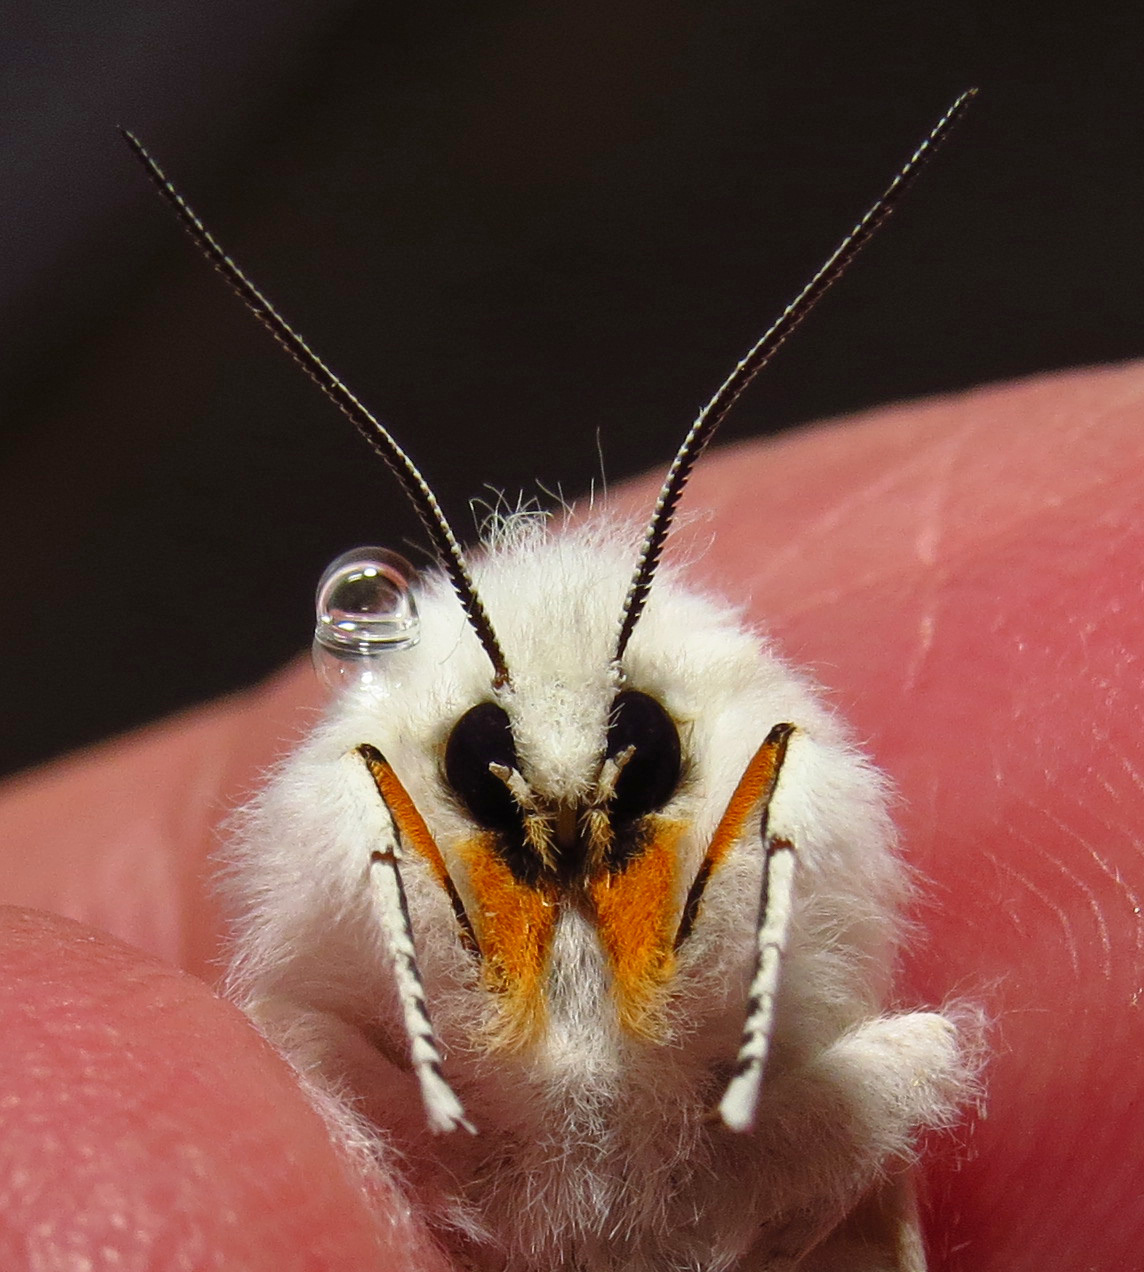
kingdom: Animalia
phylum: Arthropoda
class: Insecta
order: Lepidoptera
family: Erebidae
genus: Spilosoma
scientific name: Spilosoma virginica
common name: Virginia tiger moth
